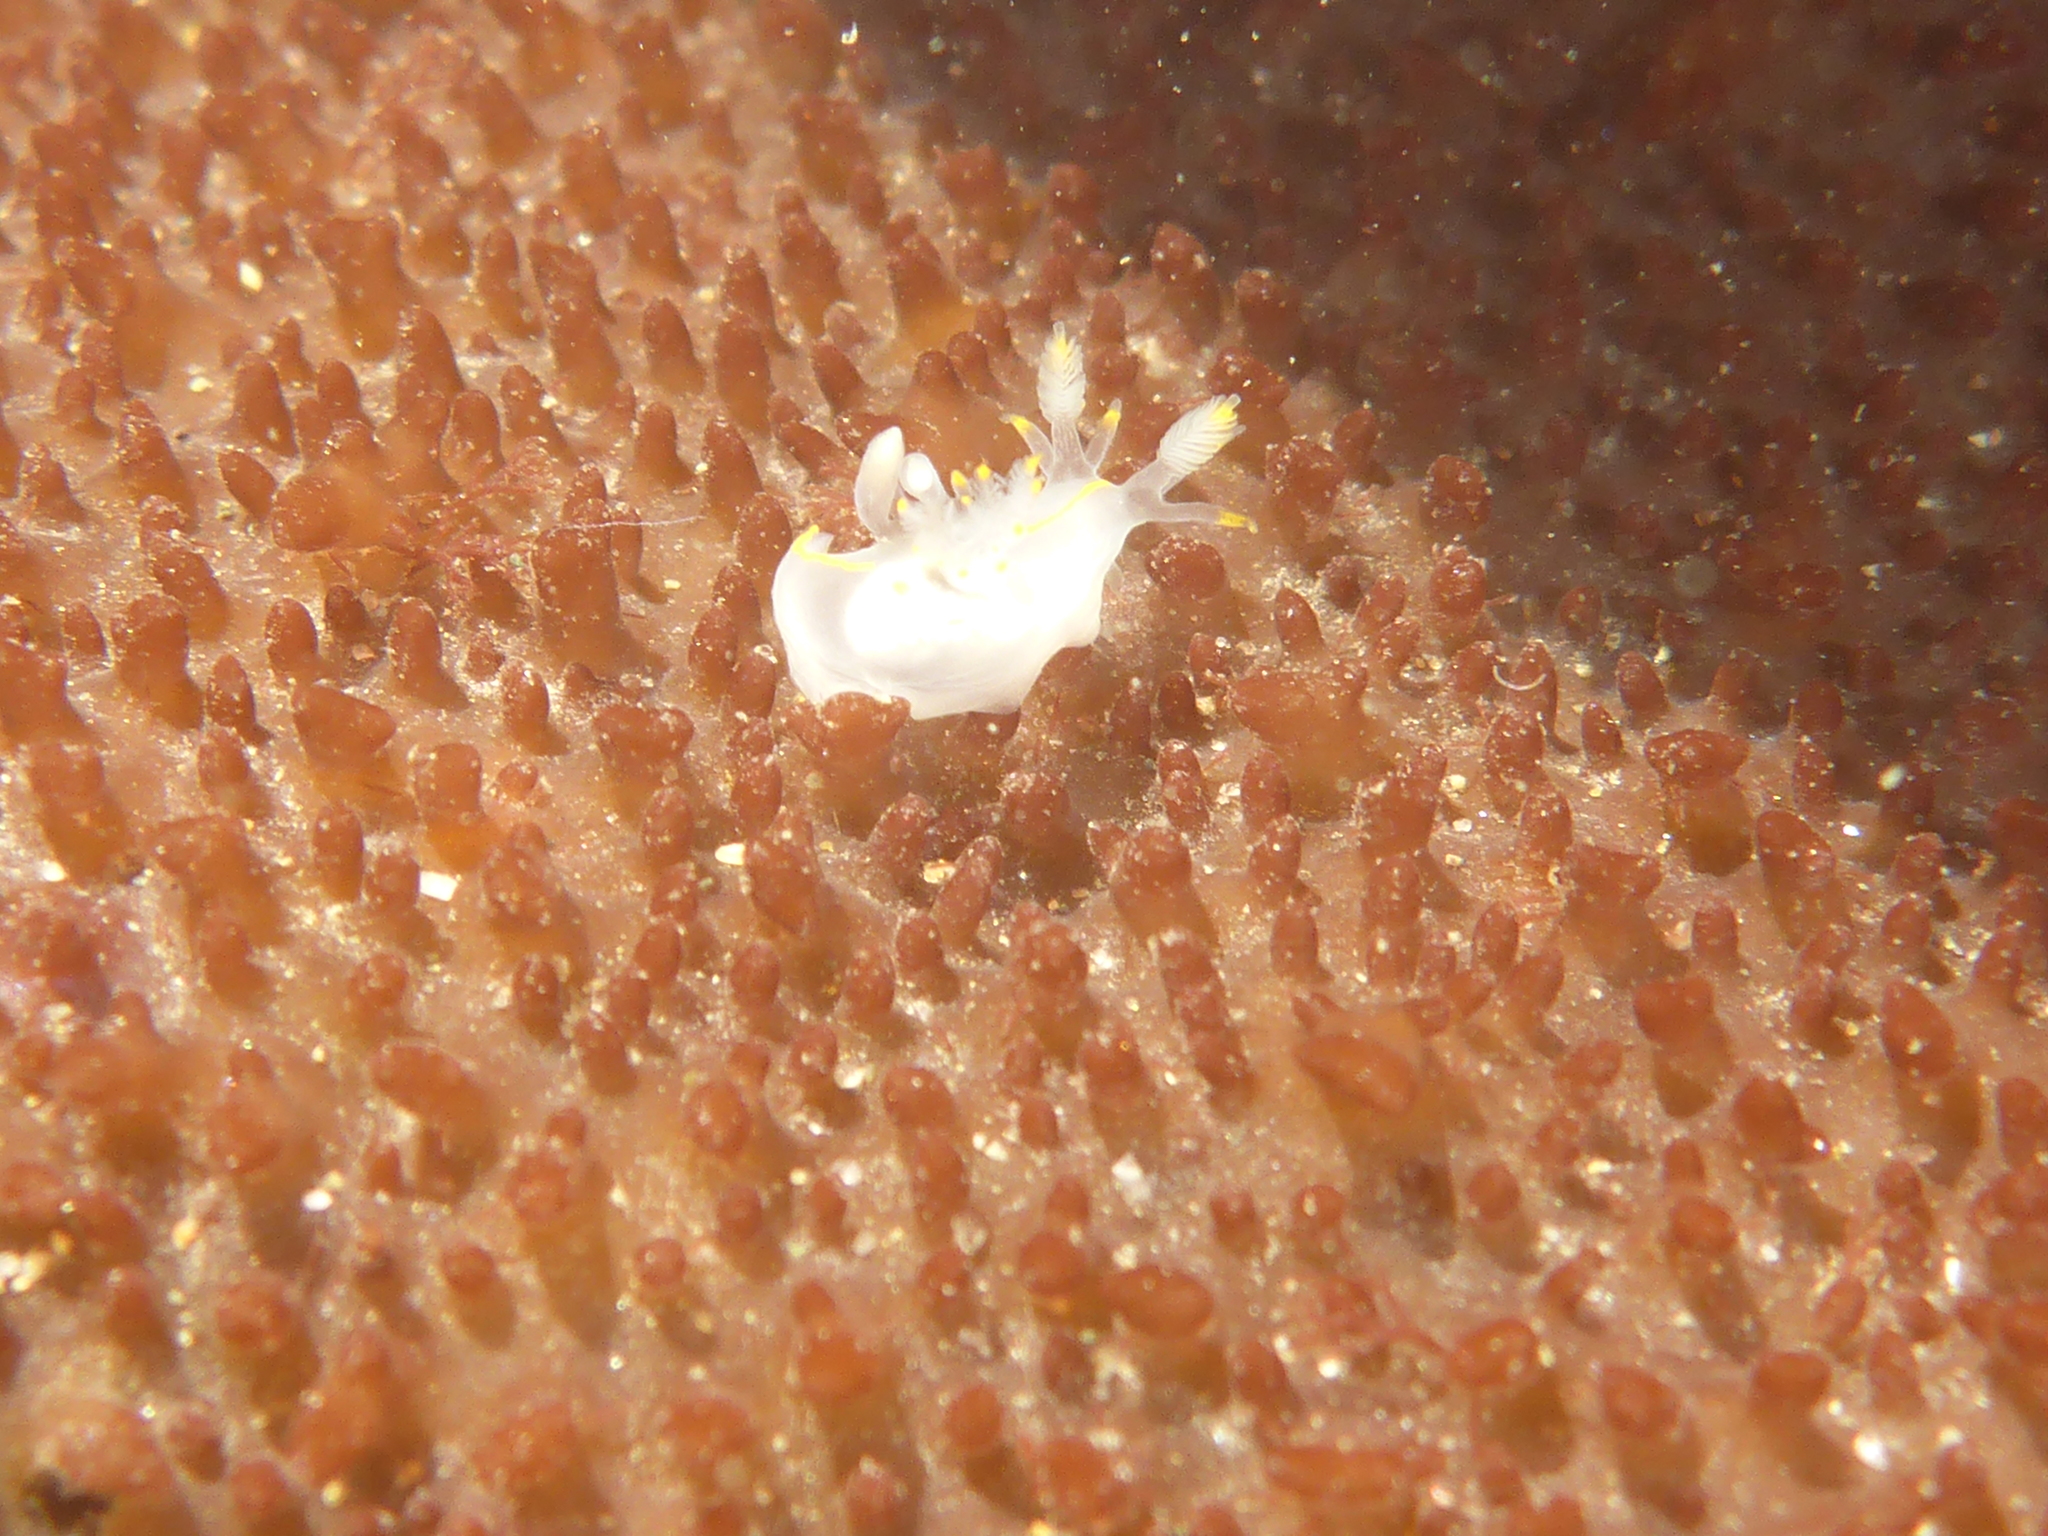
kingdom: Animalia
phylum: Mollusca
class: Gastropoda
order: Nudibranchia
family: Goniodorididae
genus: Ancula
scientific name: Ancula pacifica
